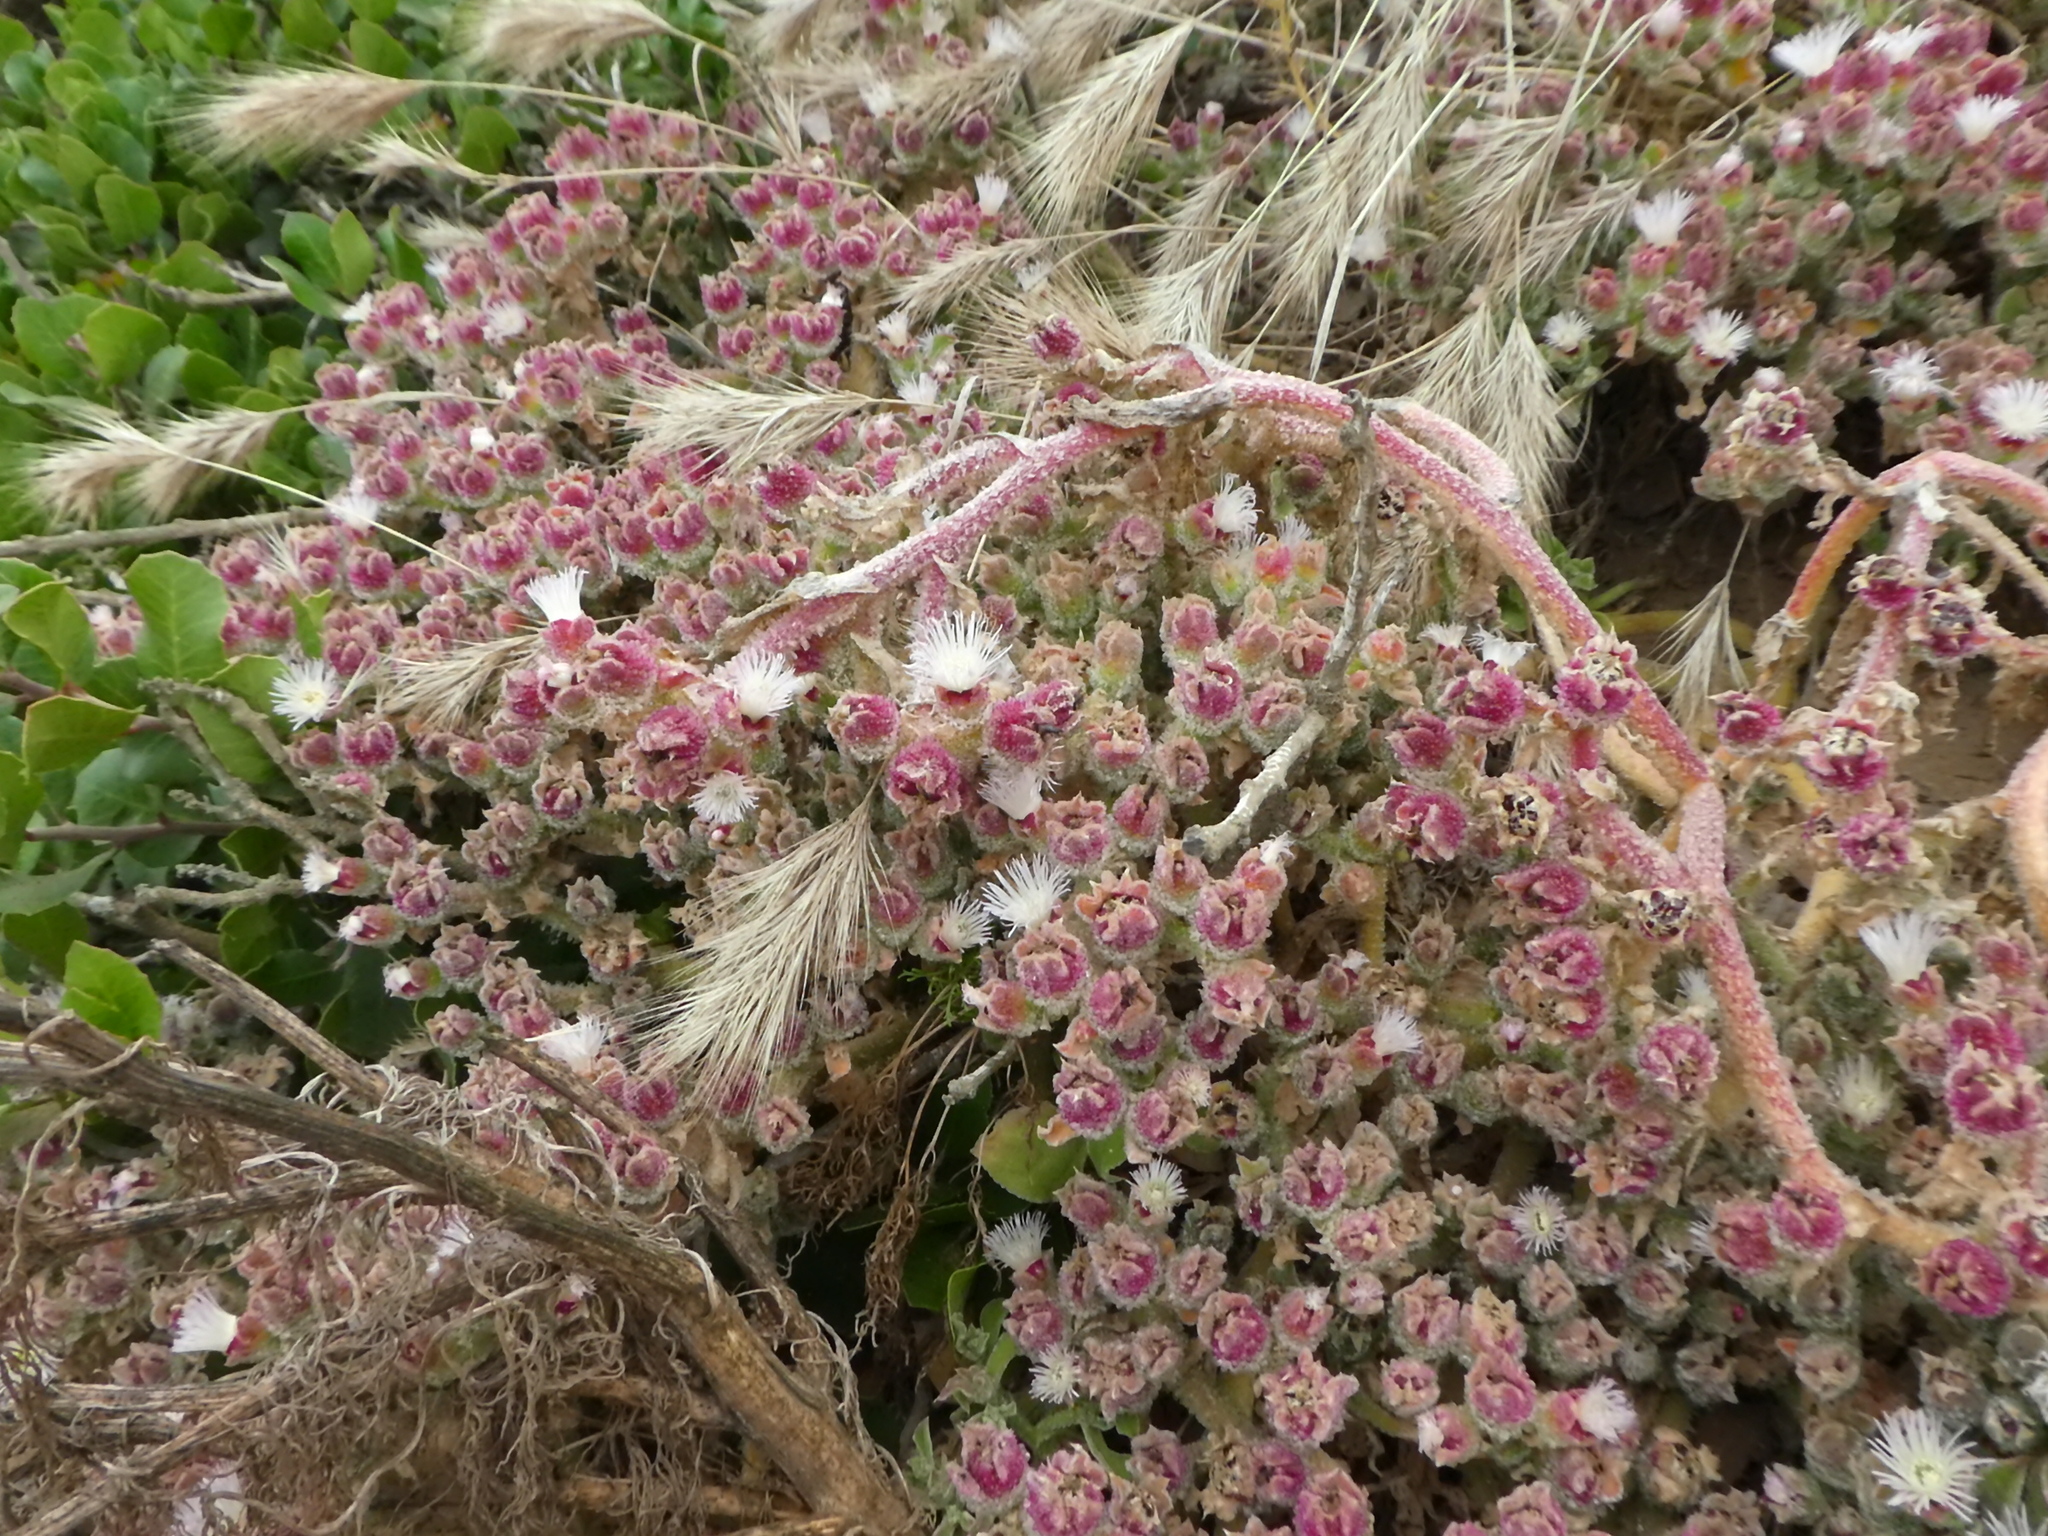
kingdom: Plantae
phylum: Tracheophyta
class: Magnoliopsida
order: Caryophyllales
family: Aizoaceae
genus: Mesembryanthemum
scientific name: Mesembryanthemum crystallinum
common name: Common iceplant
